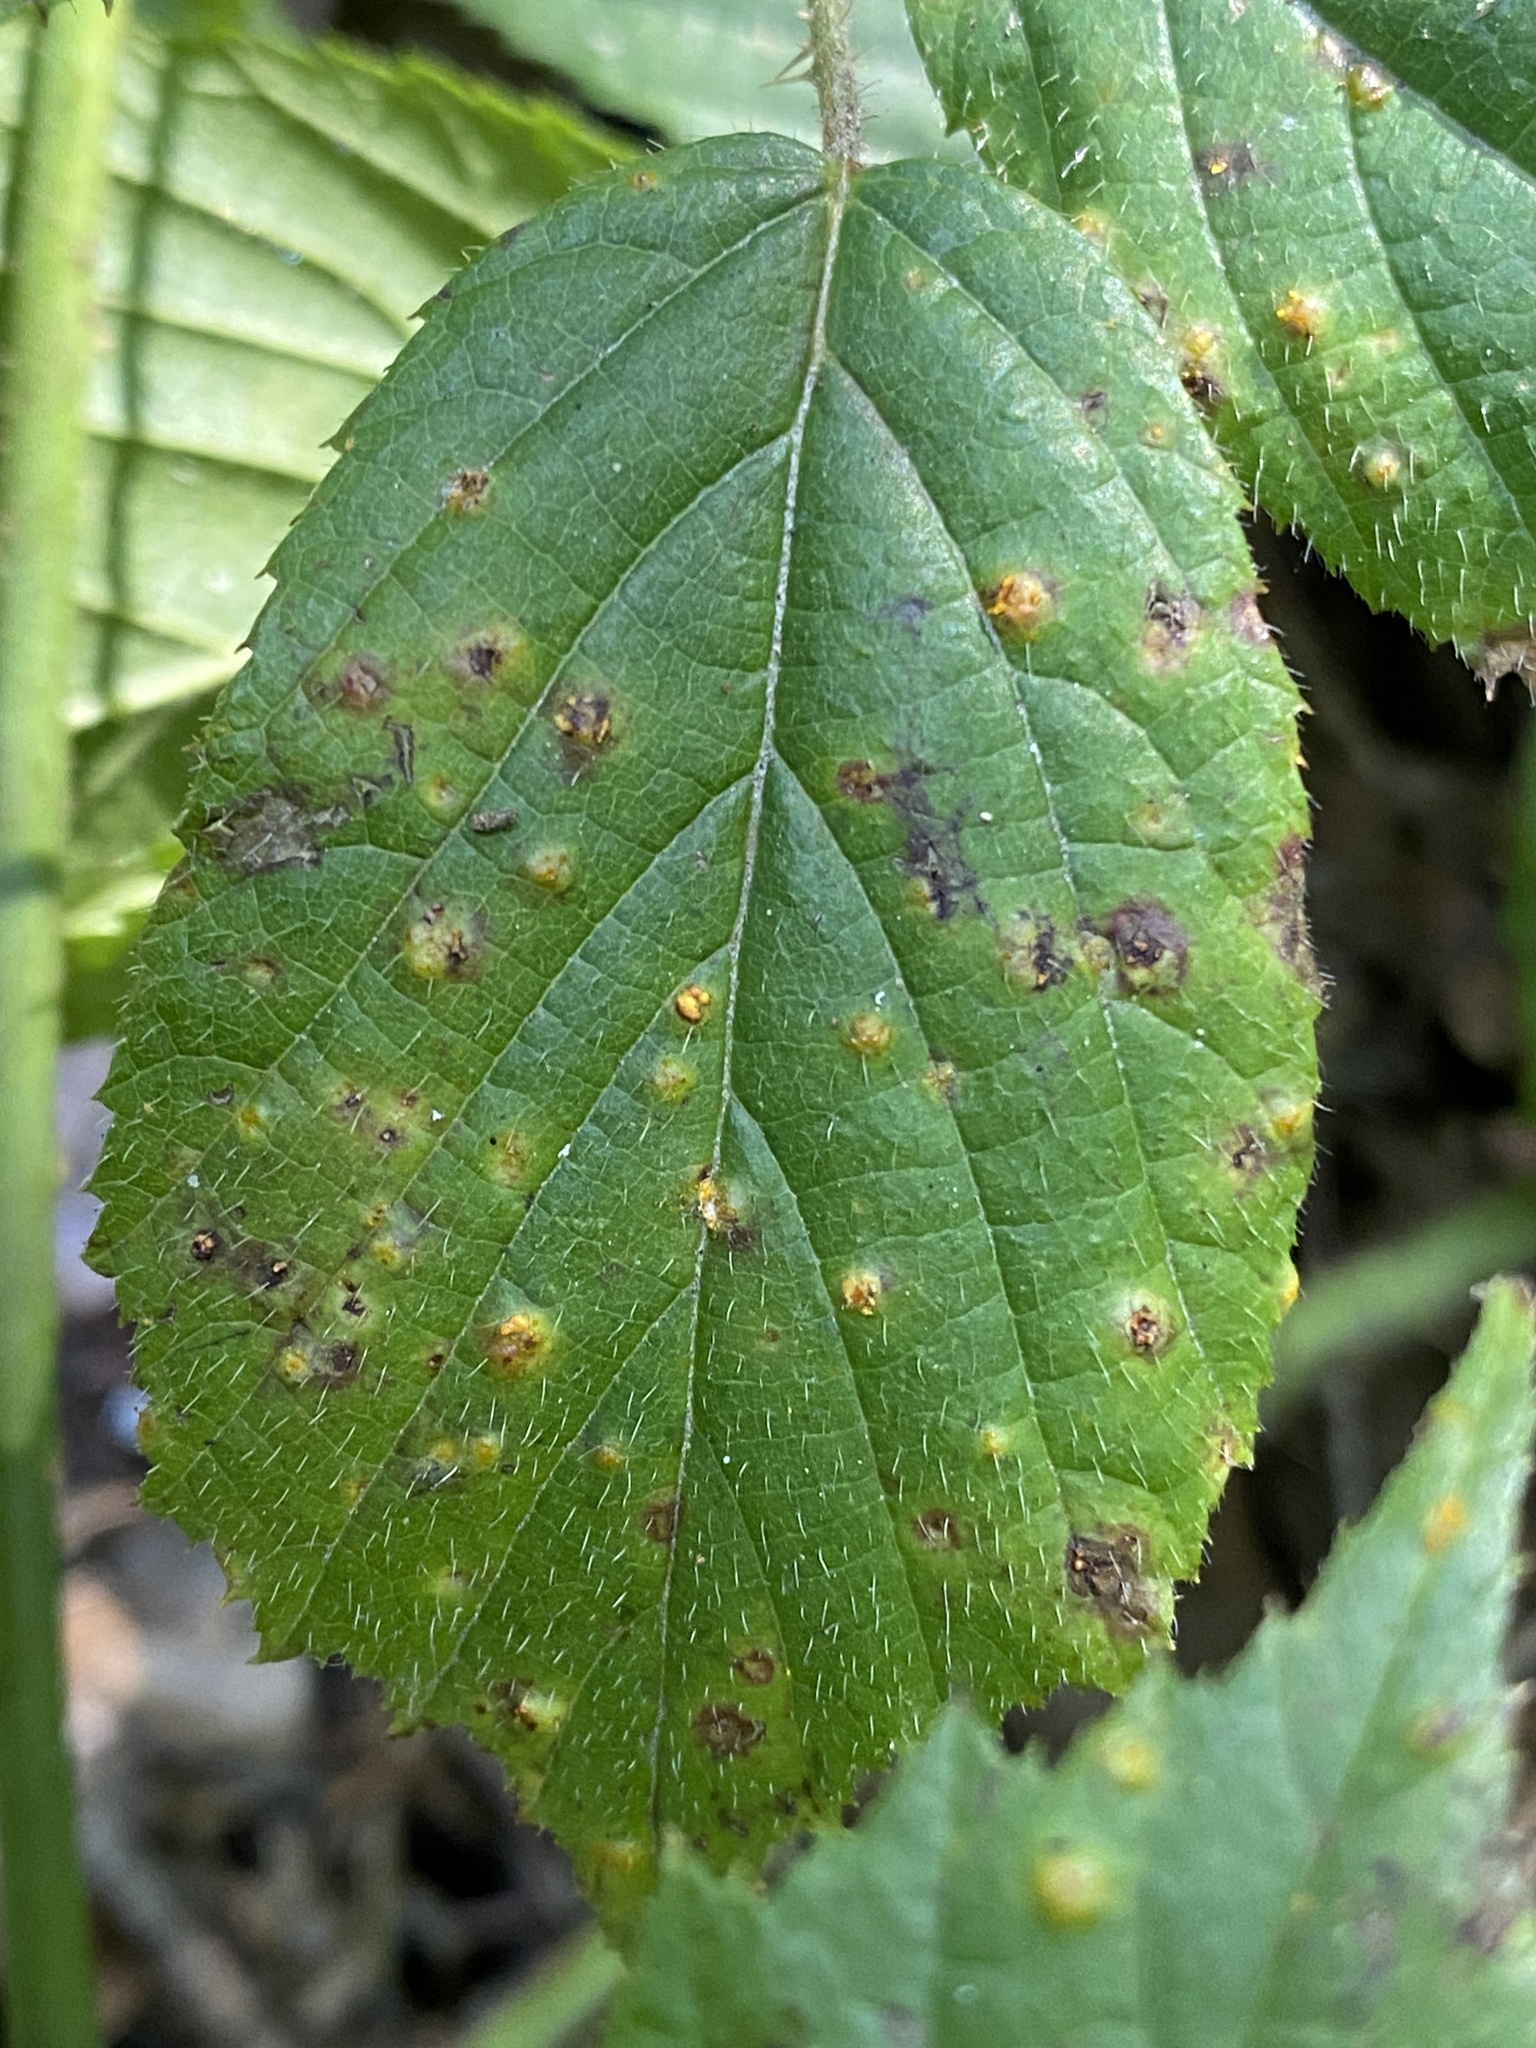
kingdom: Fungi
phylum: Basidiomycota
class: Pucciniomycetes
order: Pucciniales
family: Phragmidiaceae
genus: Kuehneola
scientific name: Kuehneola uredinis
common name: Bramble stem rust
